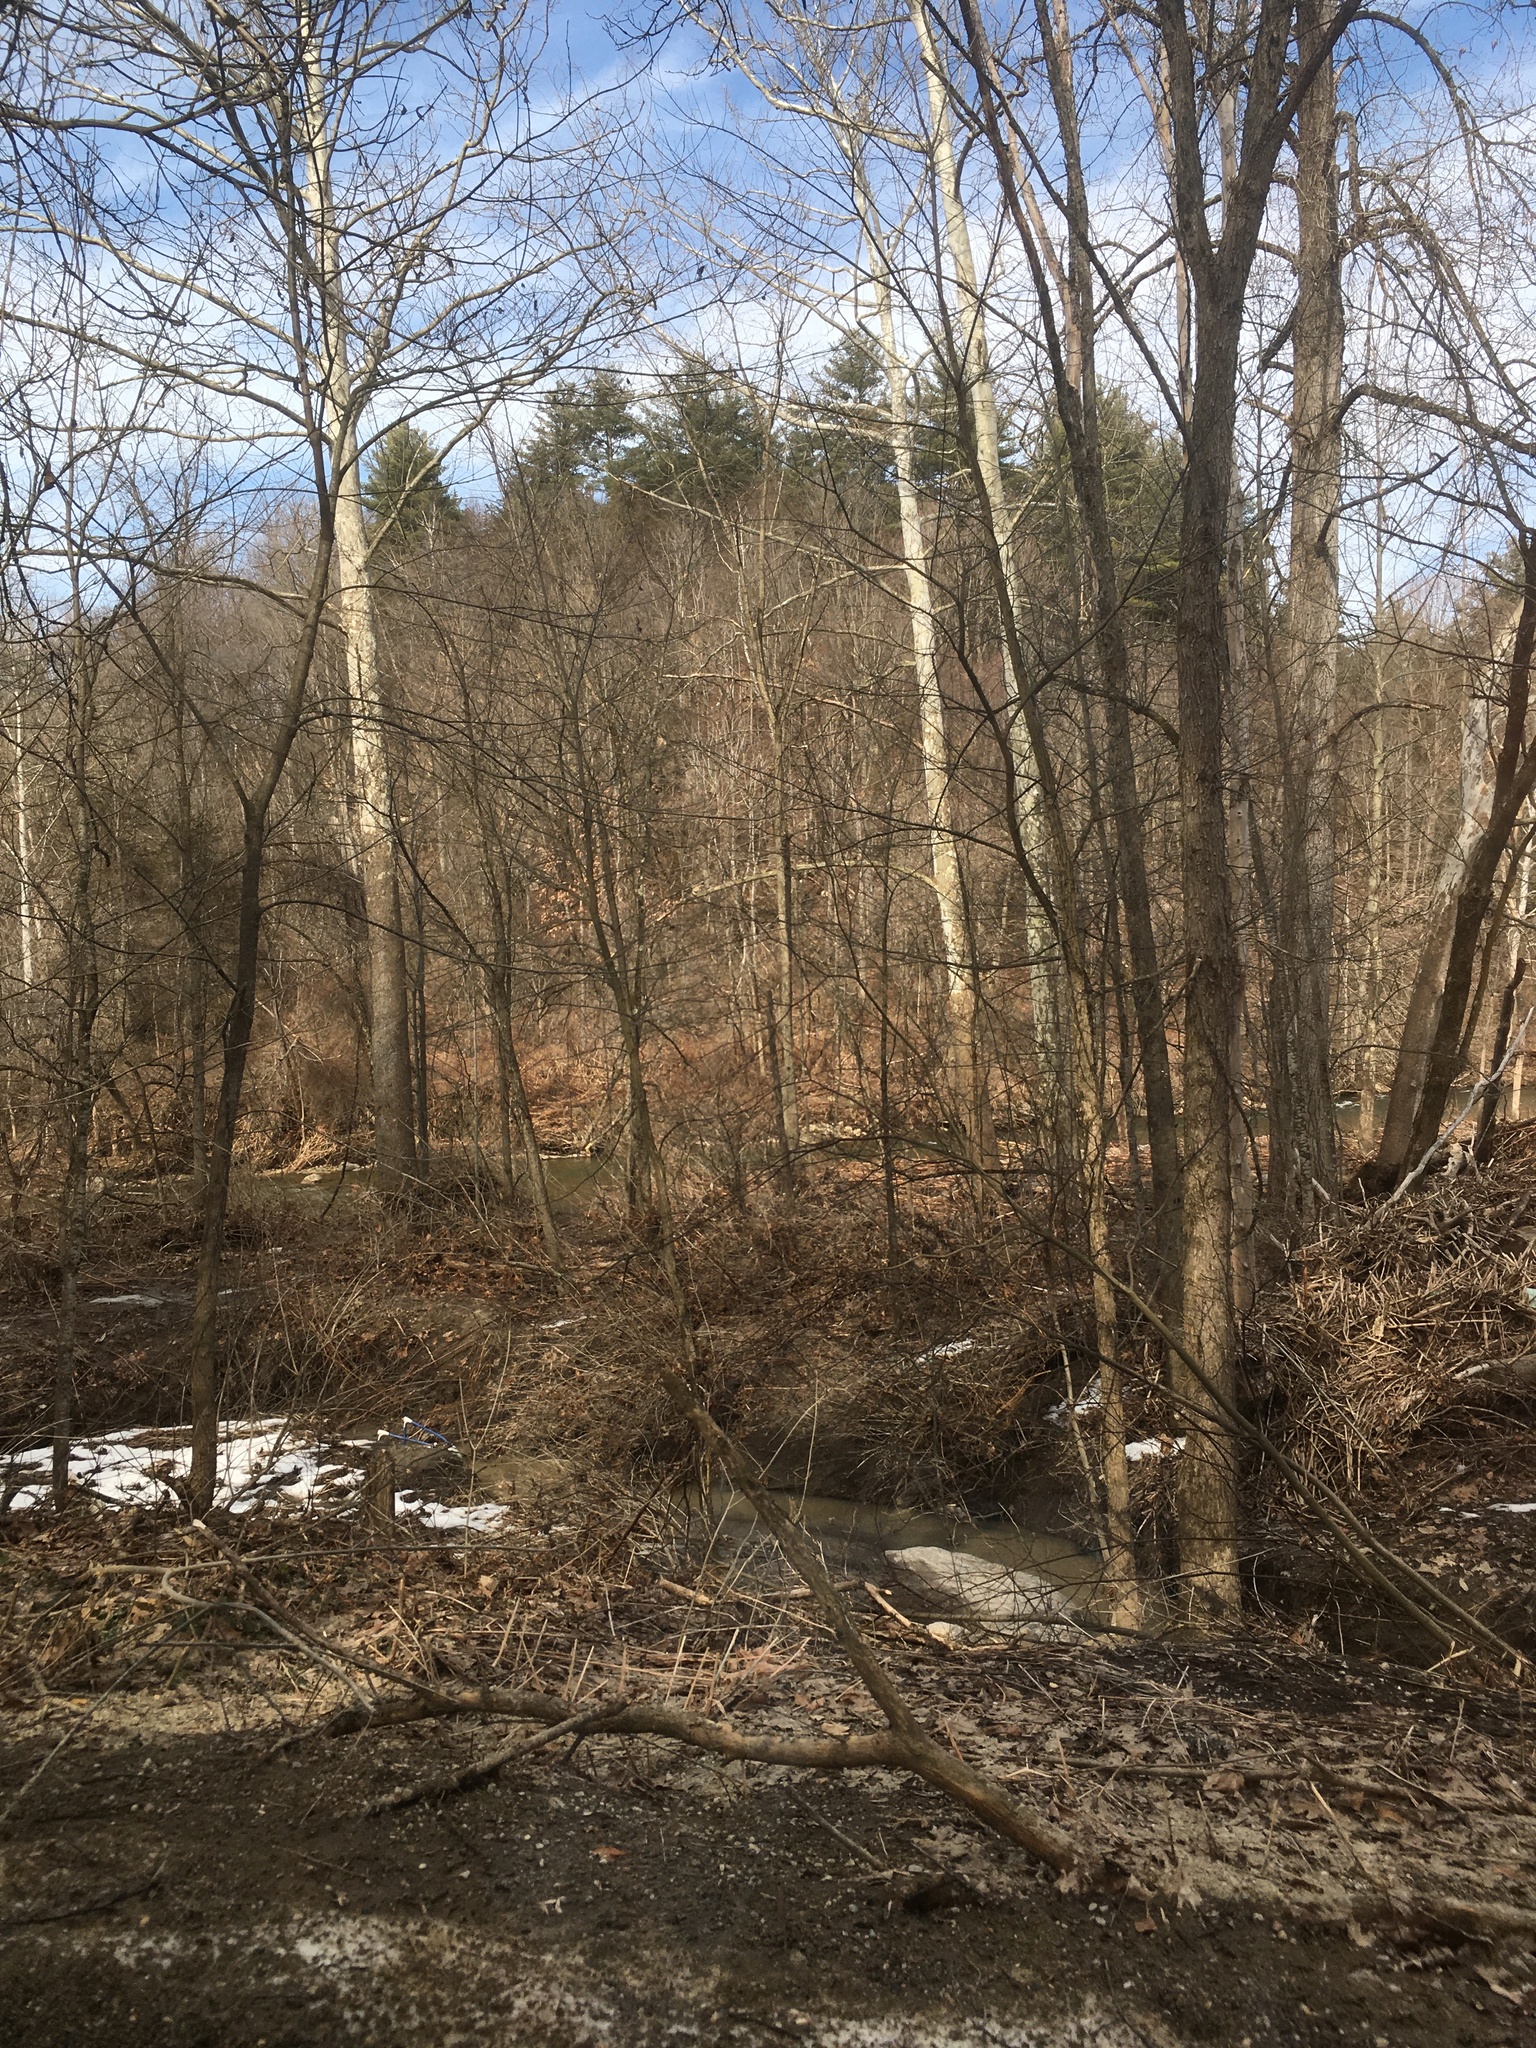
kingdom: Plantae
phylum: Tracheophyta
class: Magnoliopsida
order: Proteales
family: Platanaceae
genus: Platanus
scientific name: Platanus occidentalis
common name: American sycamore
